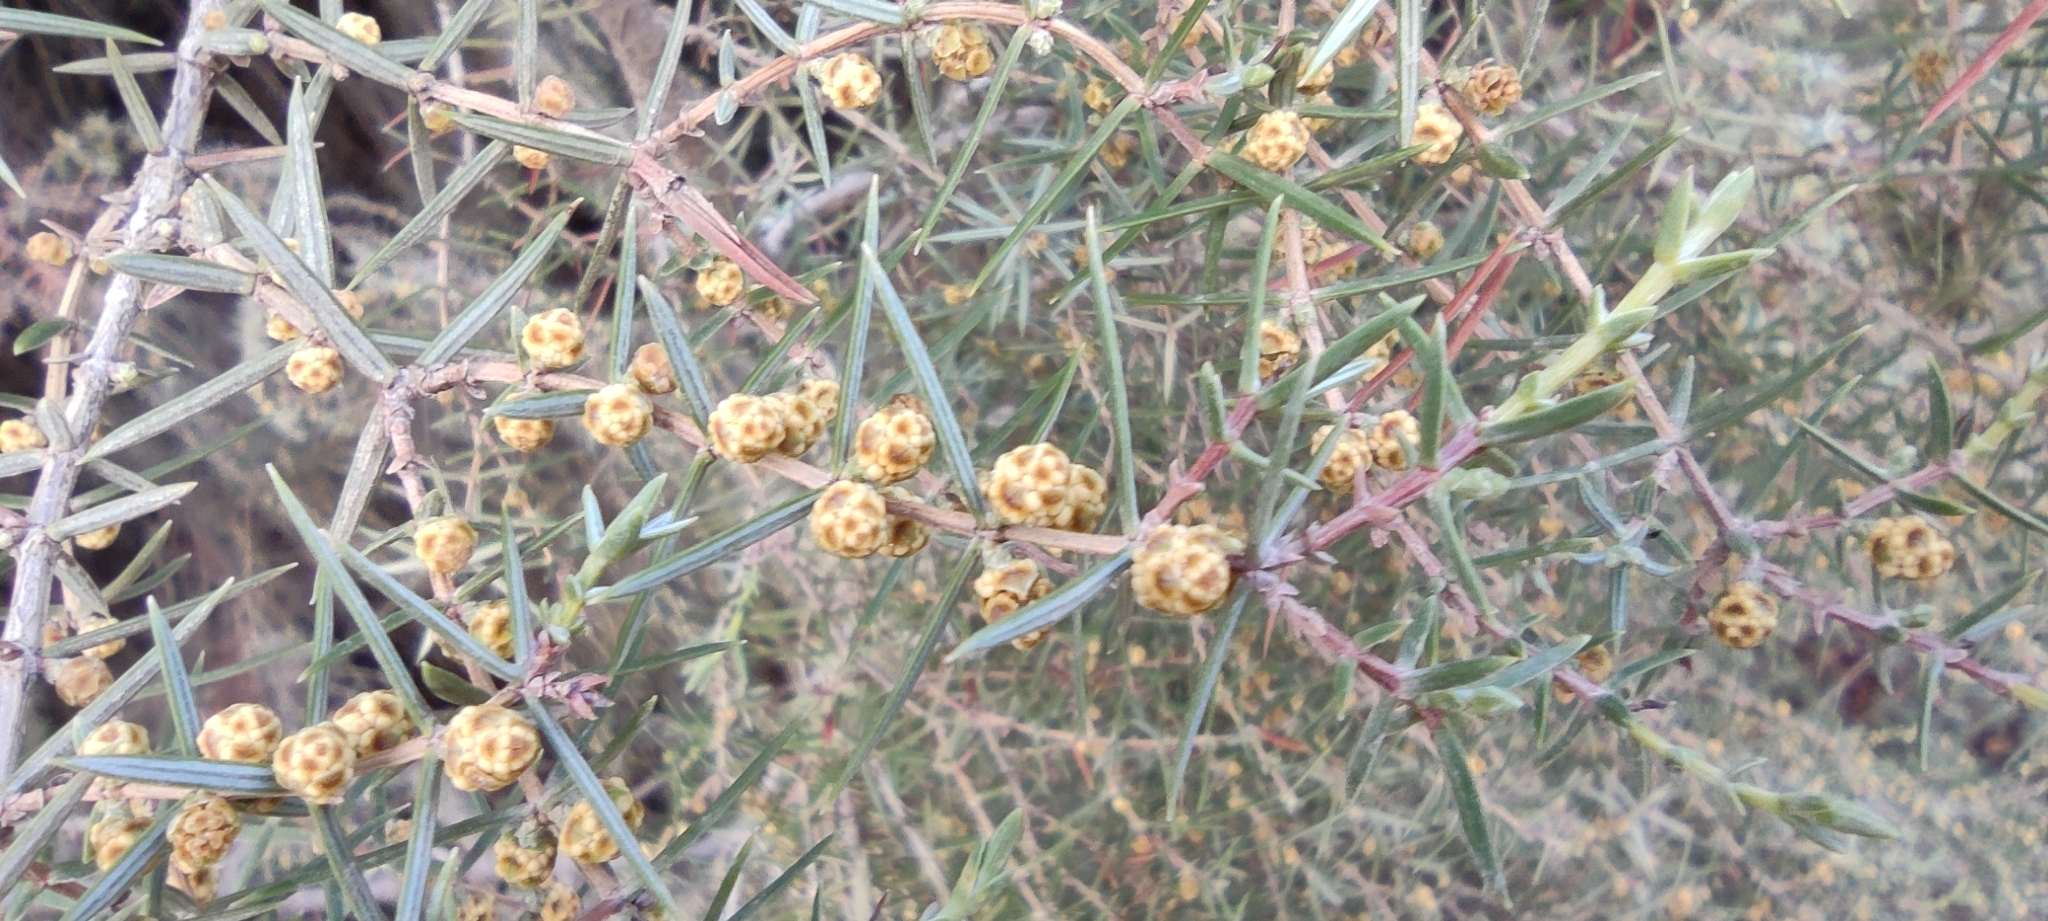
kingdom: Plantae
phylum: Tracheophyta
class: Pinopsida
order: Pinales
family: Cupressaceae
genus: Juniperus
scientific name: Juniperus oxycedrus
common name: Prickly juniper
